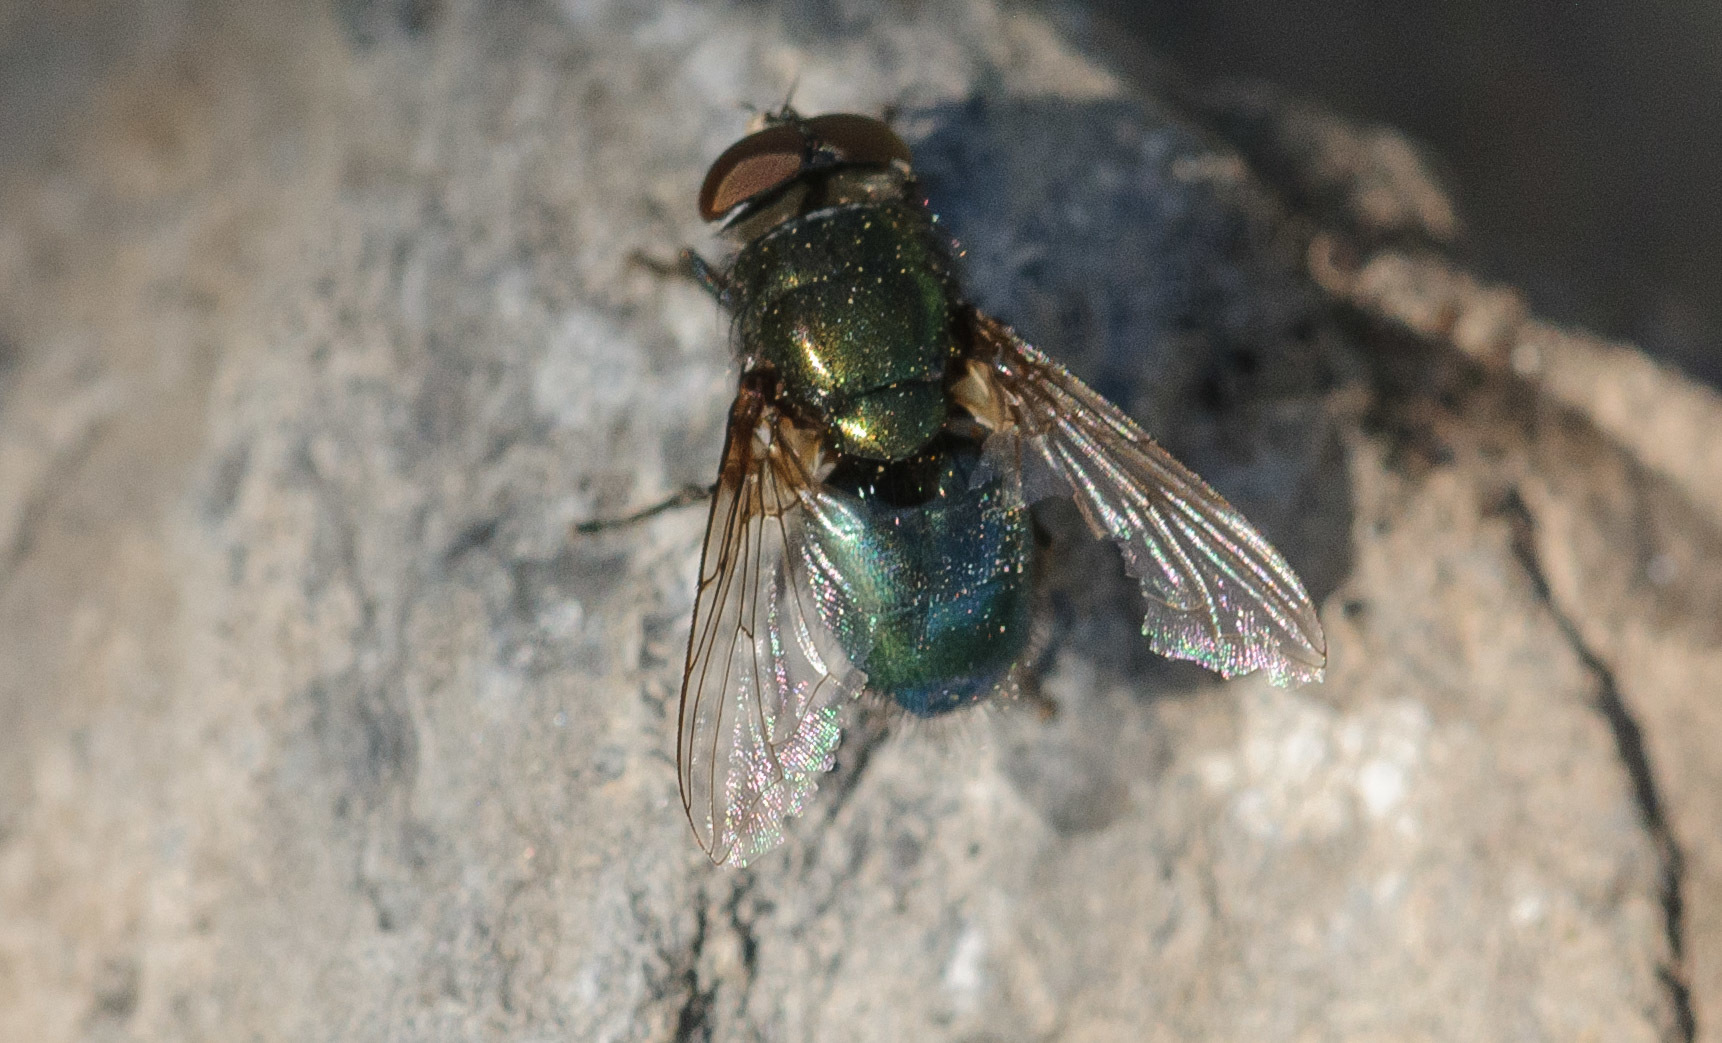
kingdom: Animalia
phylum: Arthropoda
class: Insecta
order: Diptera
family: Calliphoridae
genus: Phormia
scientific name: Phormia regina
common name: Black blow fly
